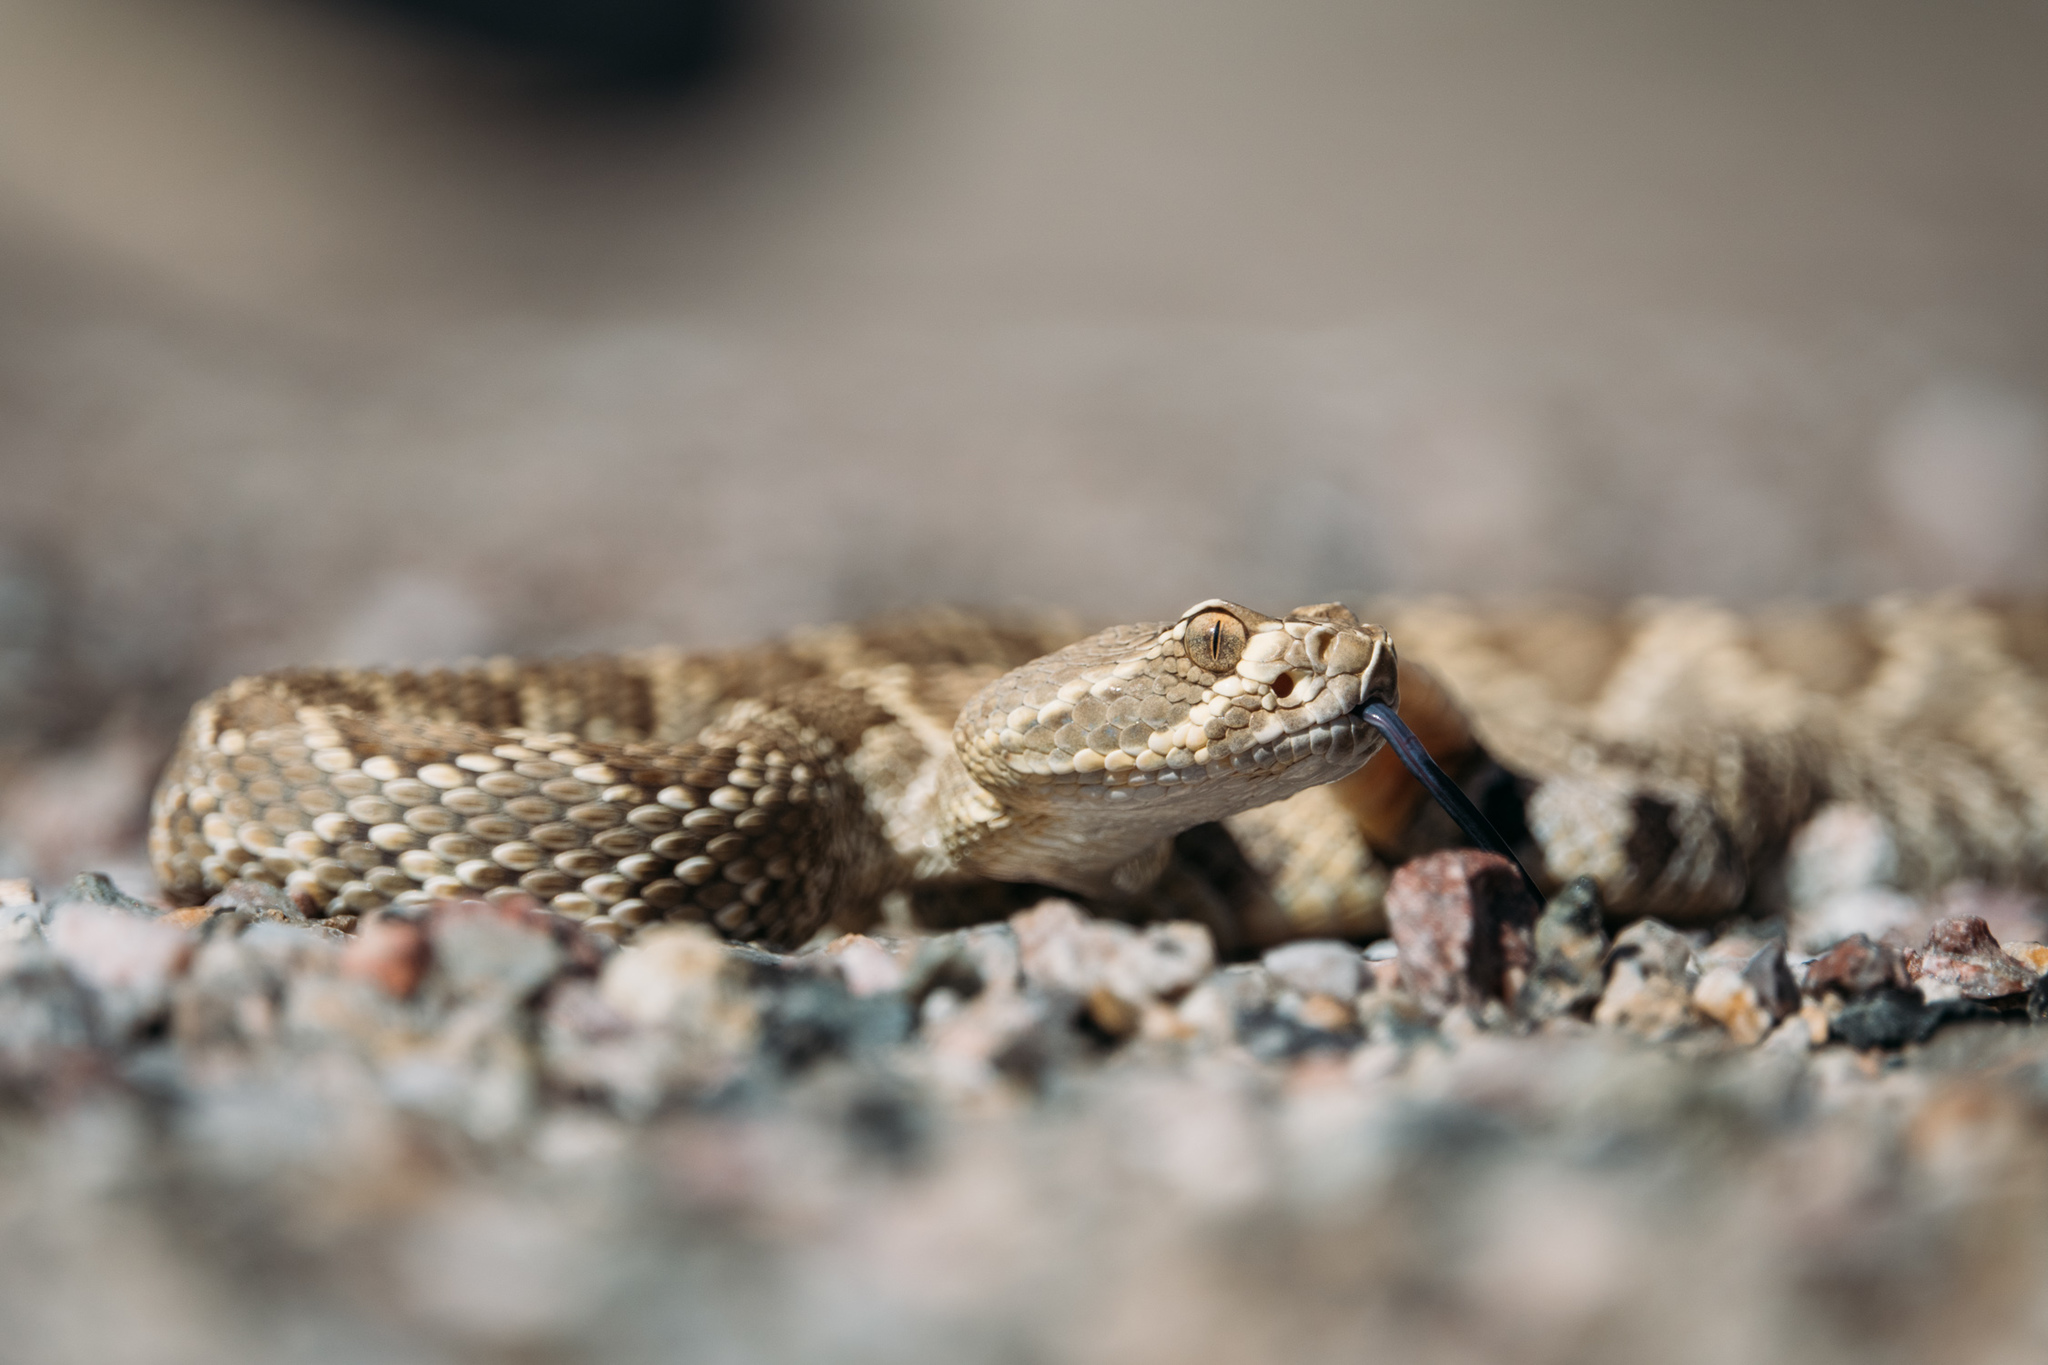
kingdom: Animalia
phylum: Chordata
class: Squamata
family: Viperidae
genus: Crotalus
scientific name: Crotalus scutulatus
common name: Scutulatus
